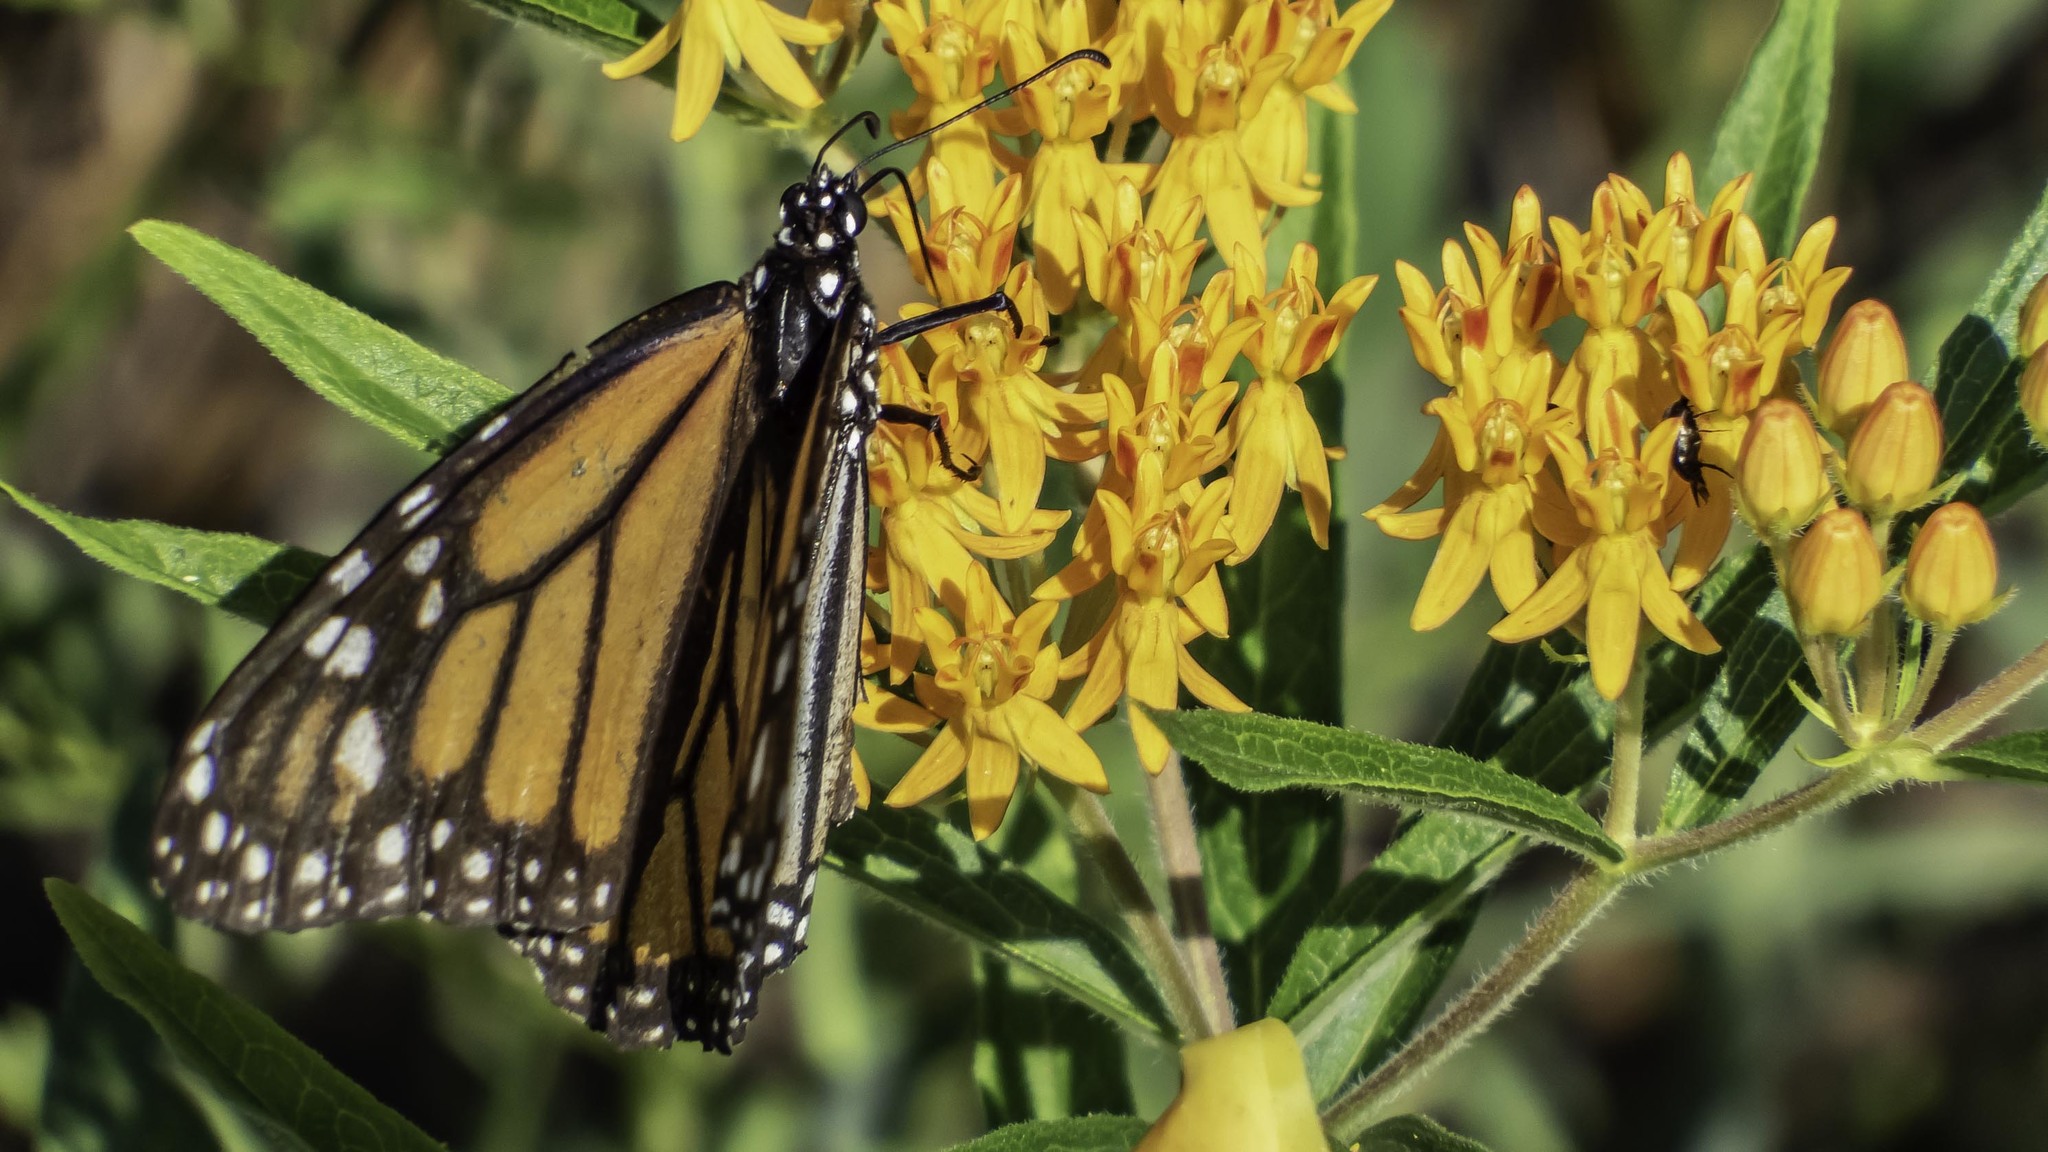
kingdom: Animalia
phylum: Arthropoda
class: Insecta
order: Lepidoptera
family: Nymphalidae
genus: Danaus
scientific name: Danaus plexippus
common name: Monarch
